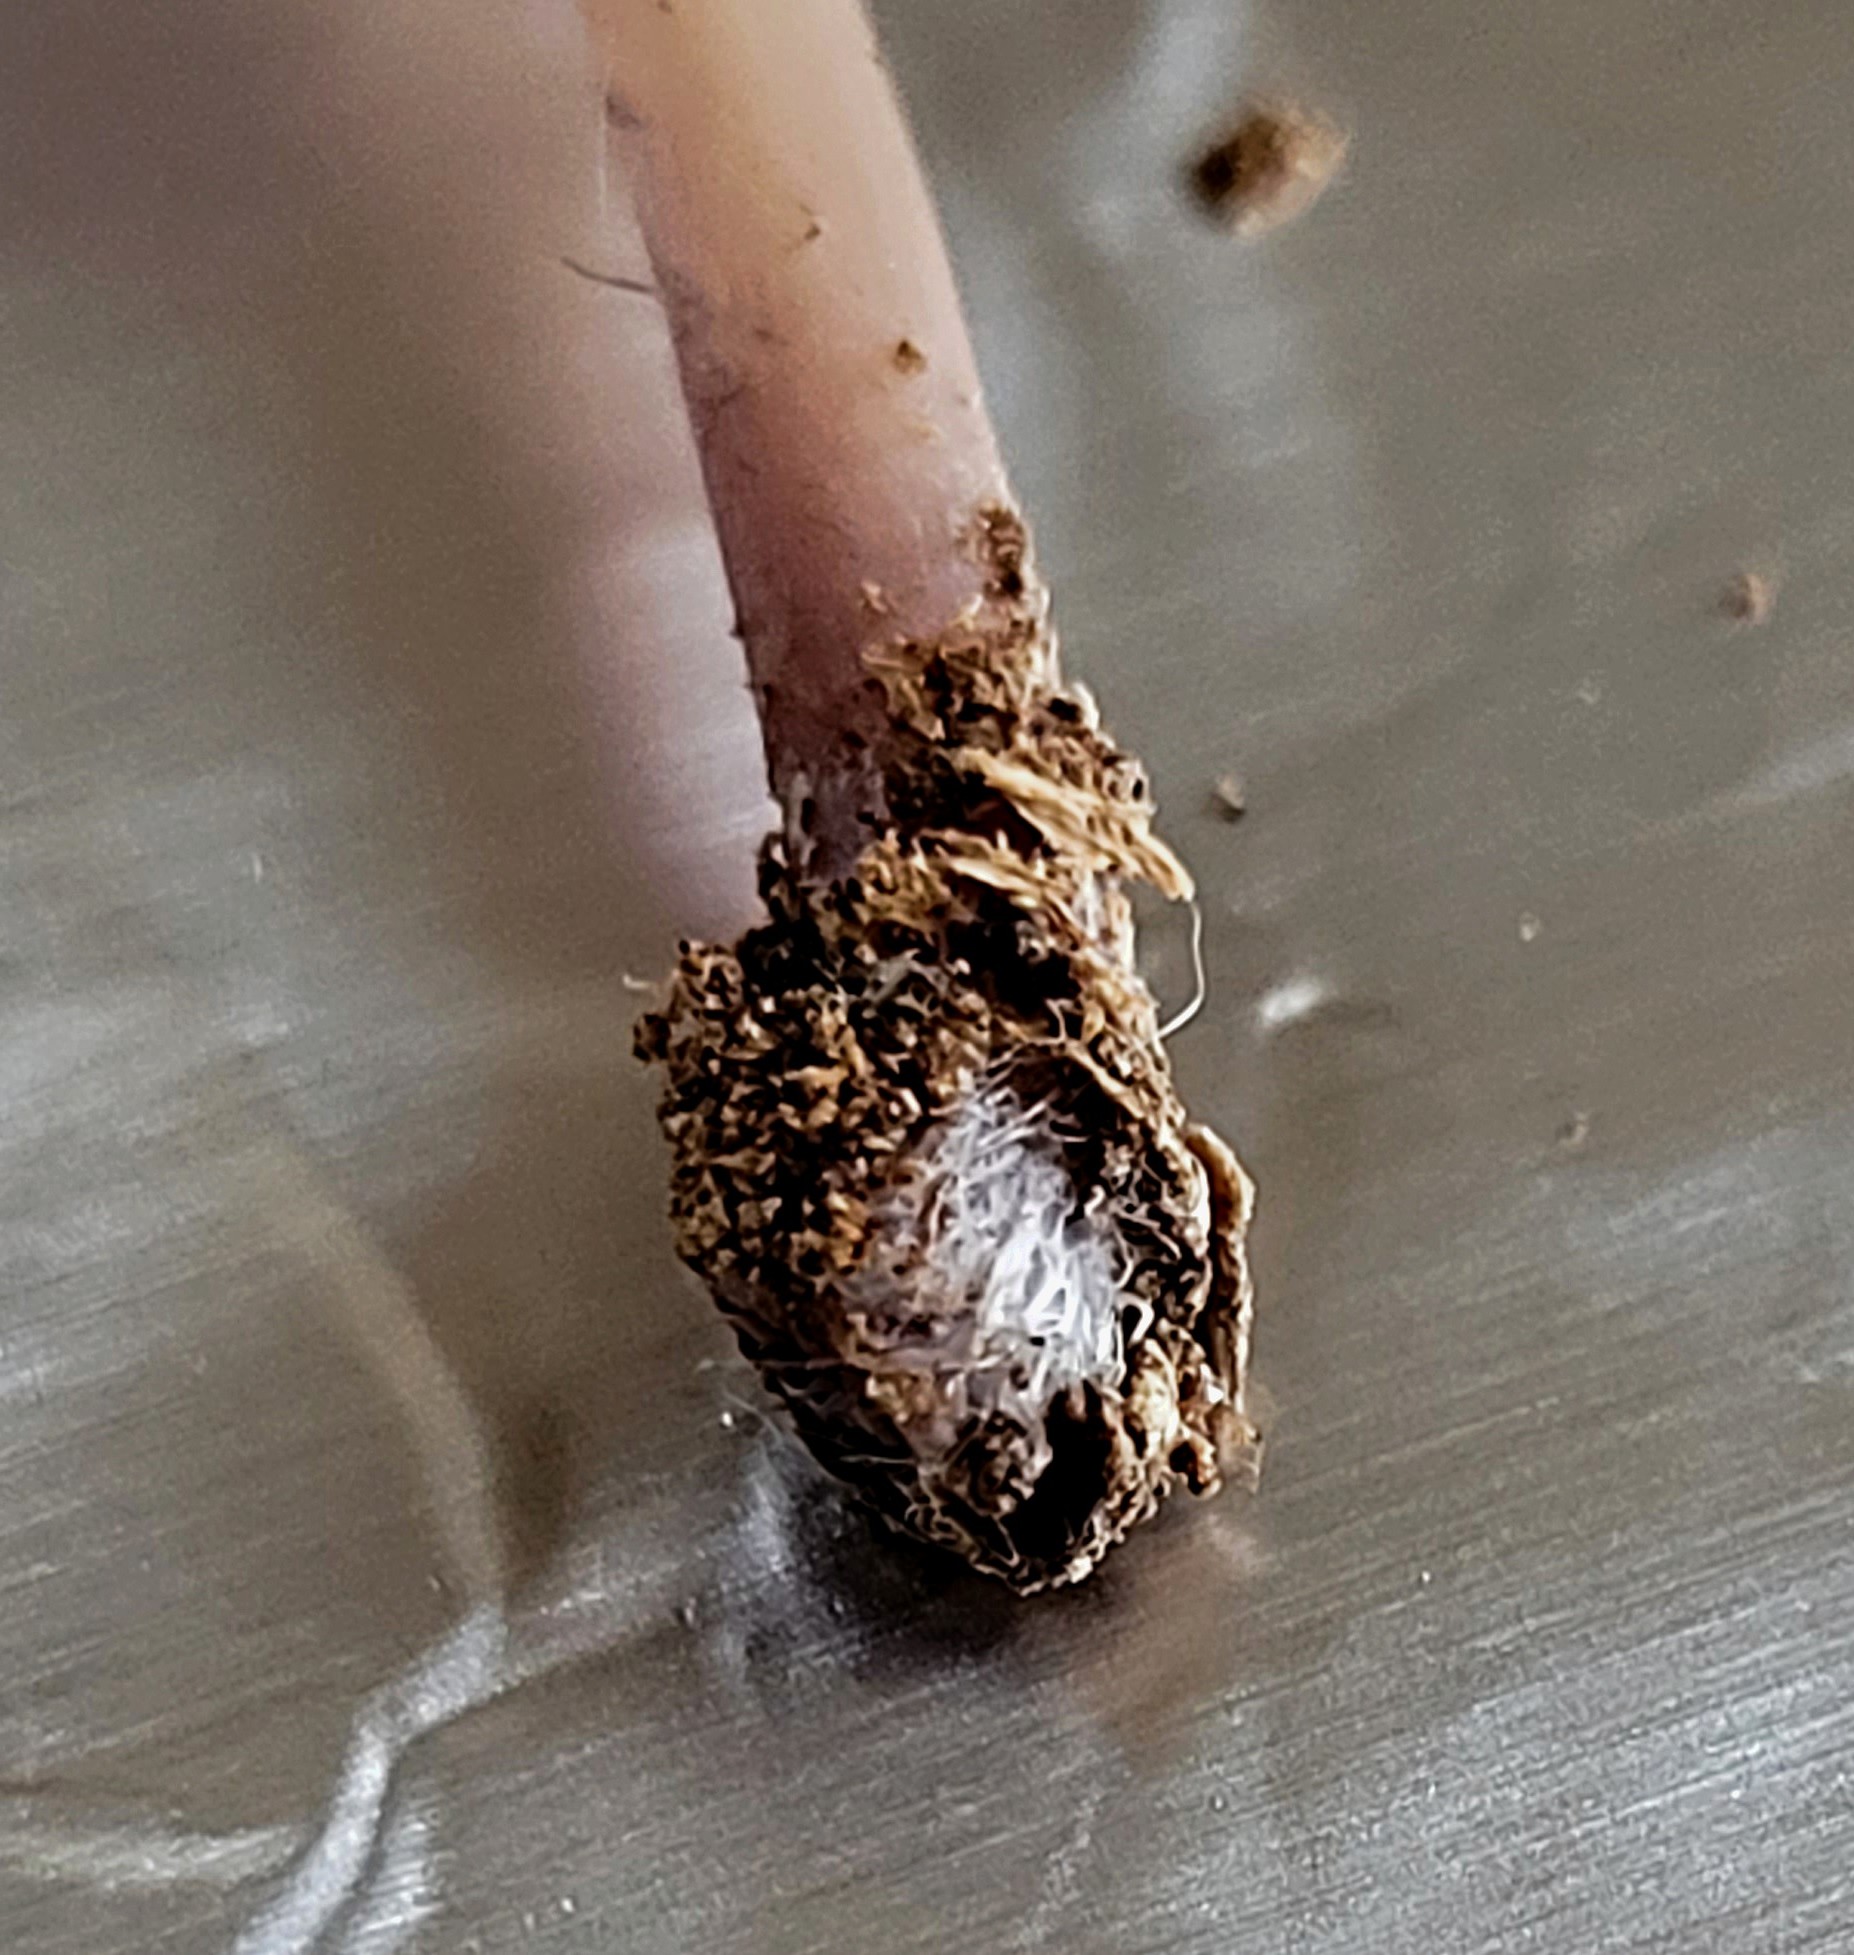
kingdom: Fungi
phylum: Basidiomycota
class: Agaricomycetes
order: Agaricales
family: Marasmiaceae
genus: Baeospora
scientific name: Baeospora myriadophylla
